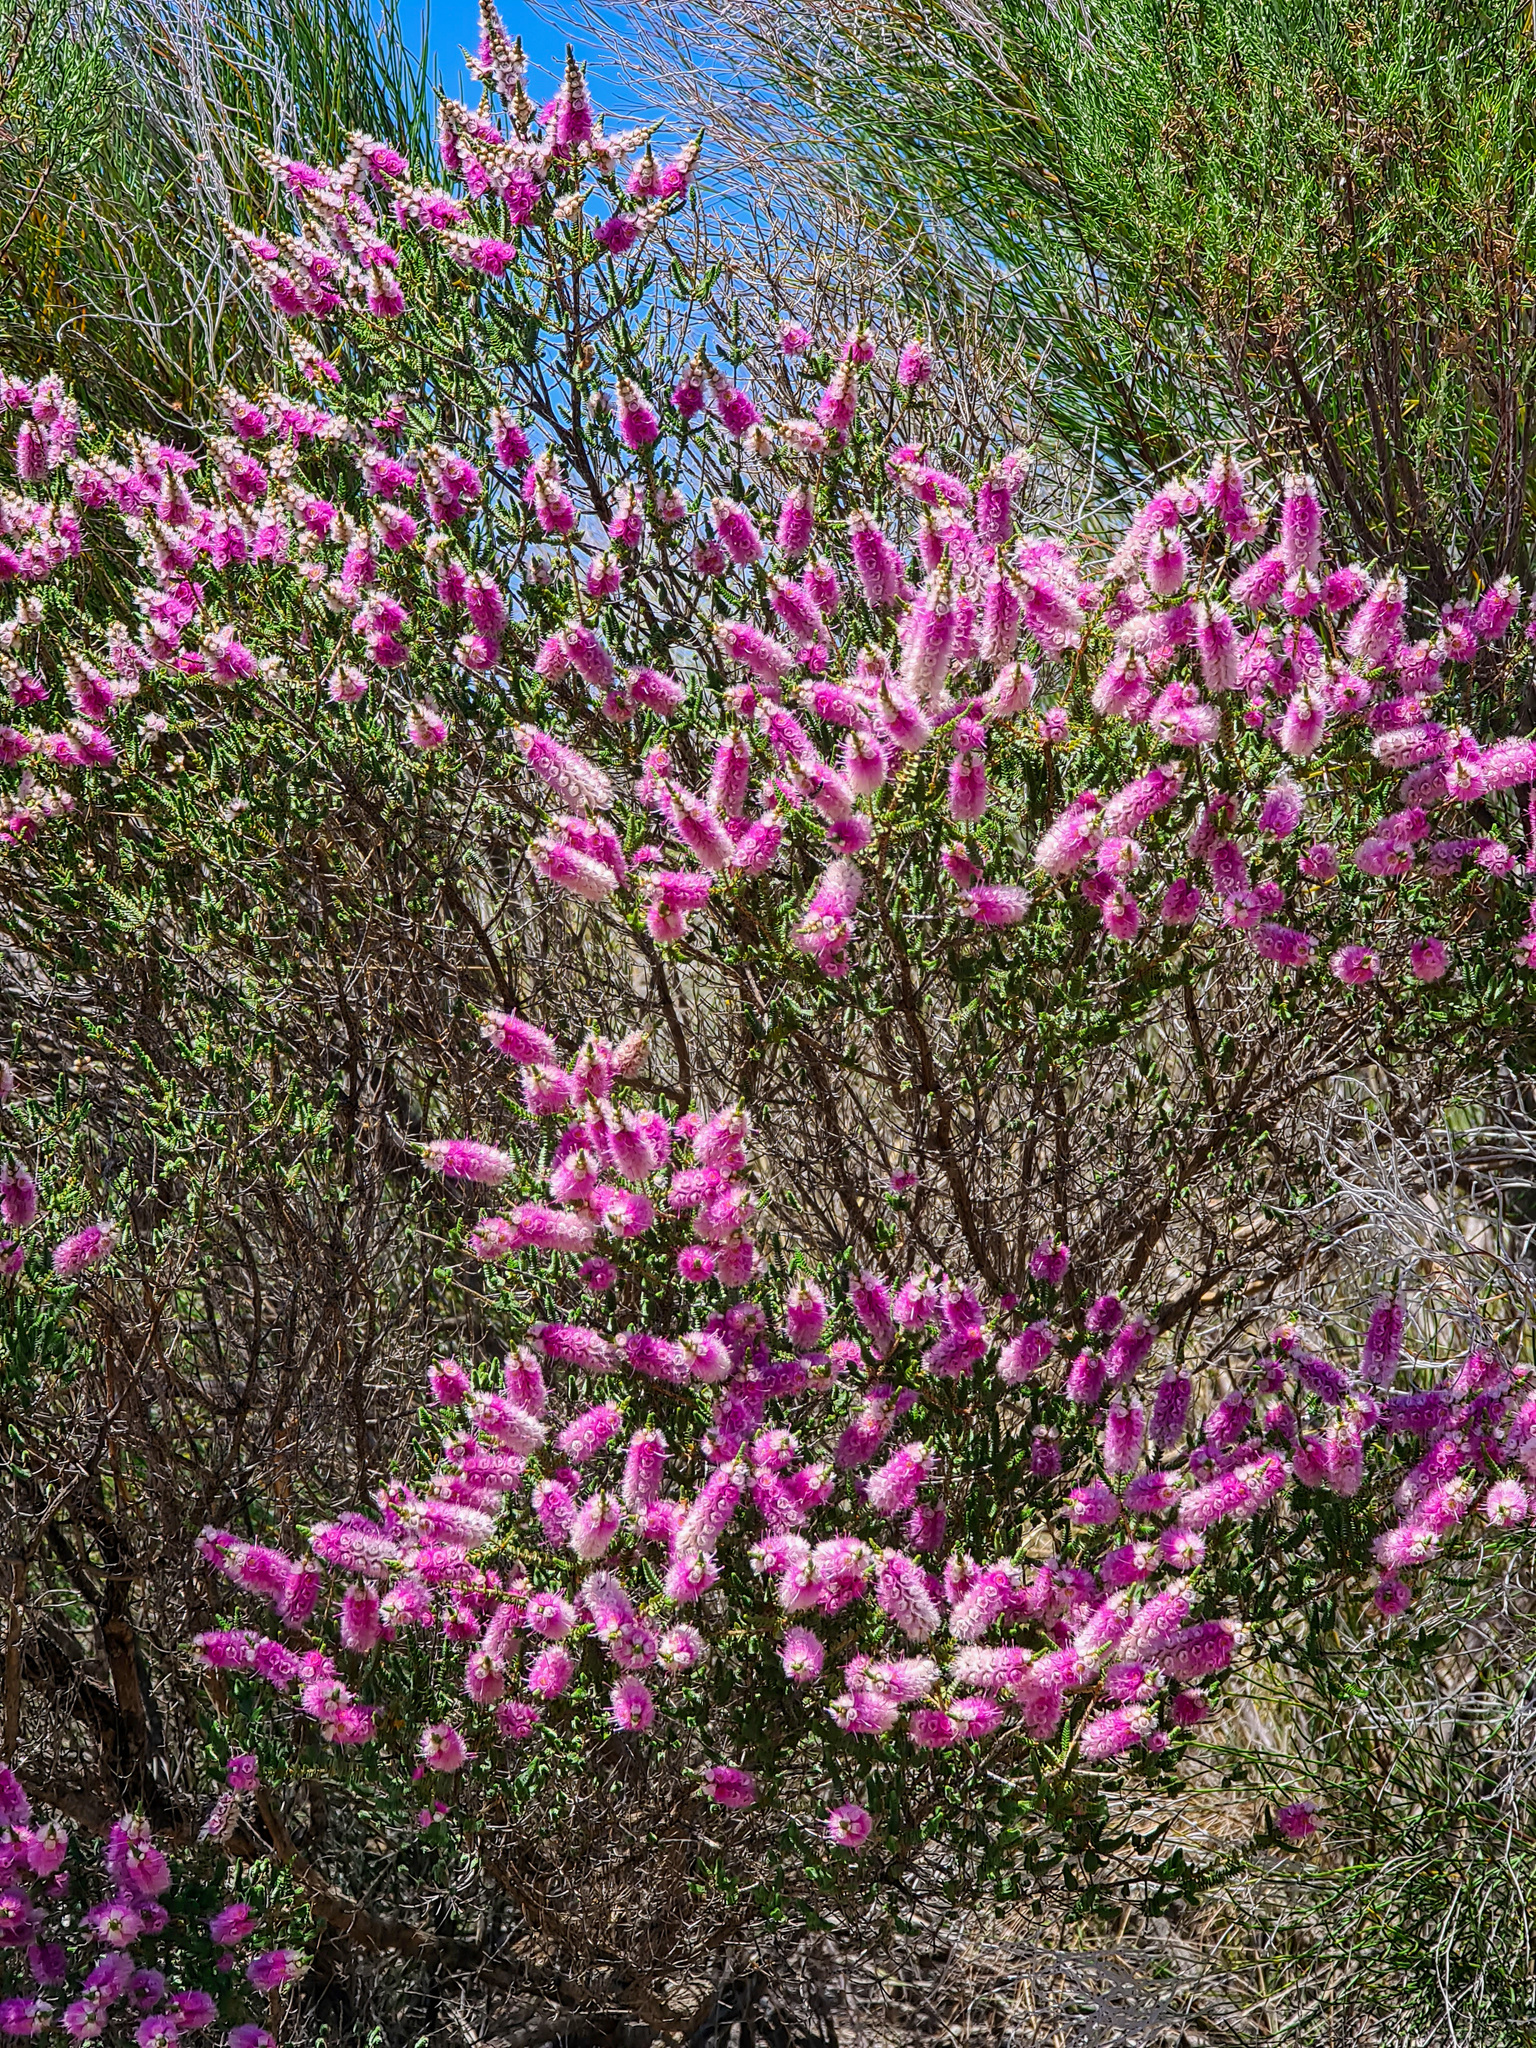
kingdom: Plantae
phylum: Tracheophyta
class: Magnoliopsida
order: Myrtales
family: Myrtaceae
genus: Verticordia
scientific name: Verticordia spicata
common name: Spike feather-flower
